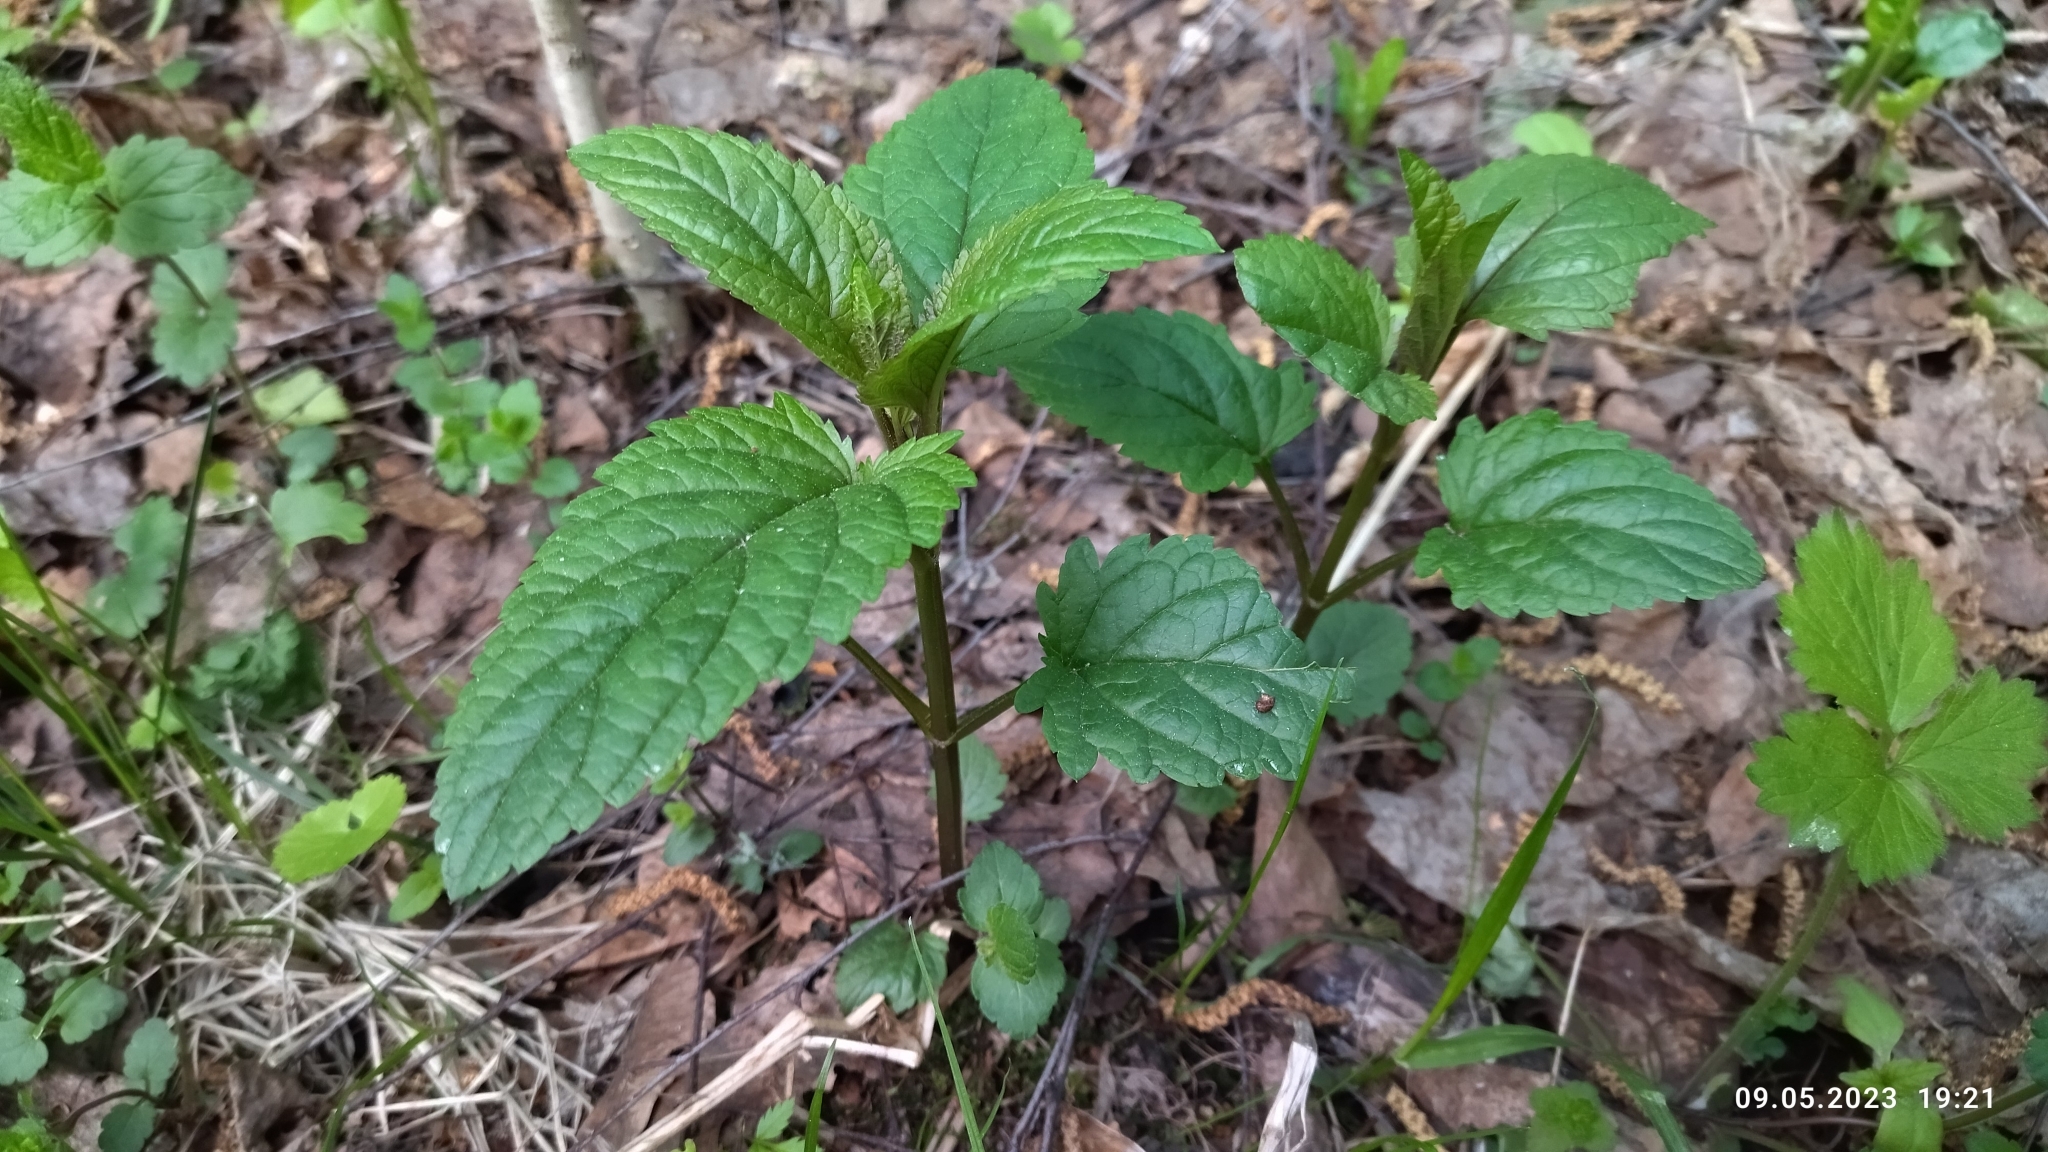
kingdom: Plantae
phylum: Tracheophyta
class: Magnoliopsida
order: Lamiales
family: Scrophulariaceae
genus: Scrophularia
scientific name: Scrophularia nodosa
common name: Common figwort
